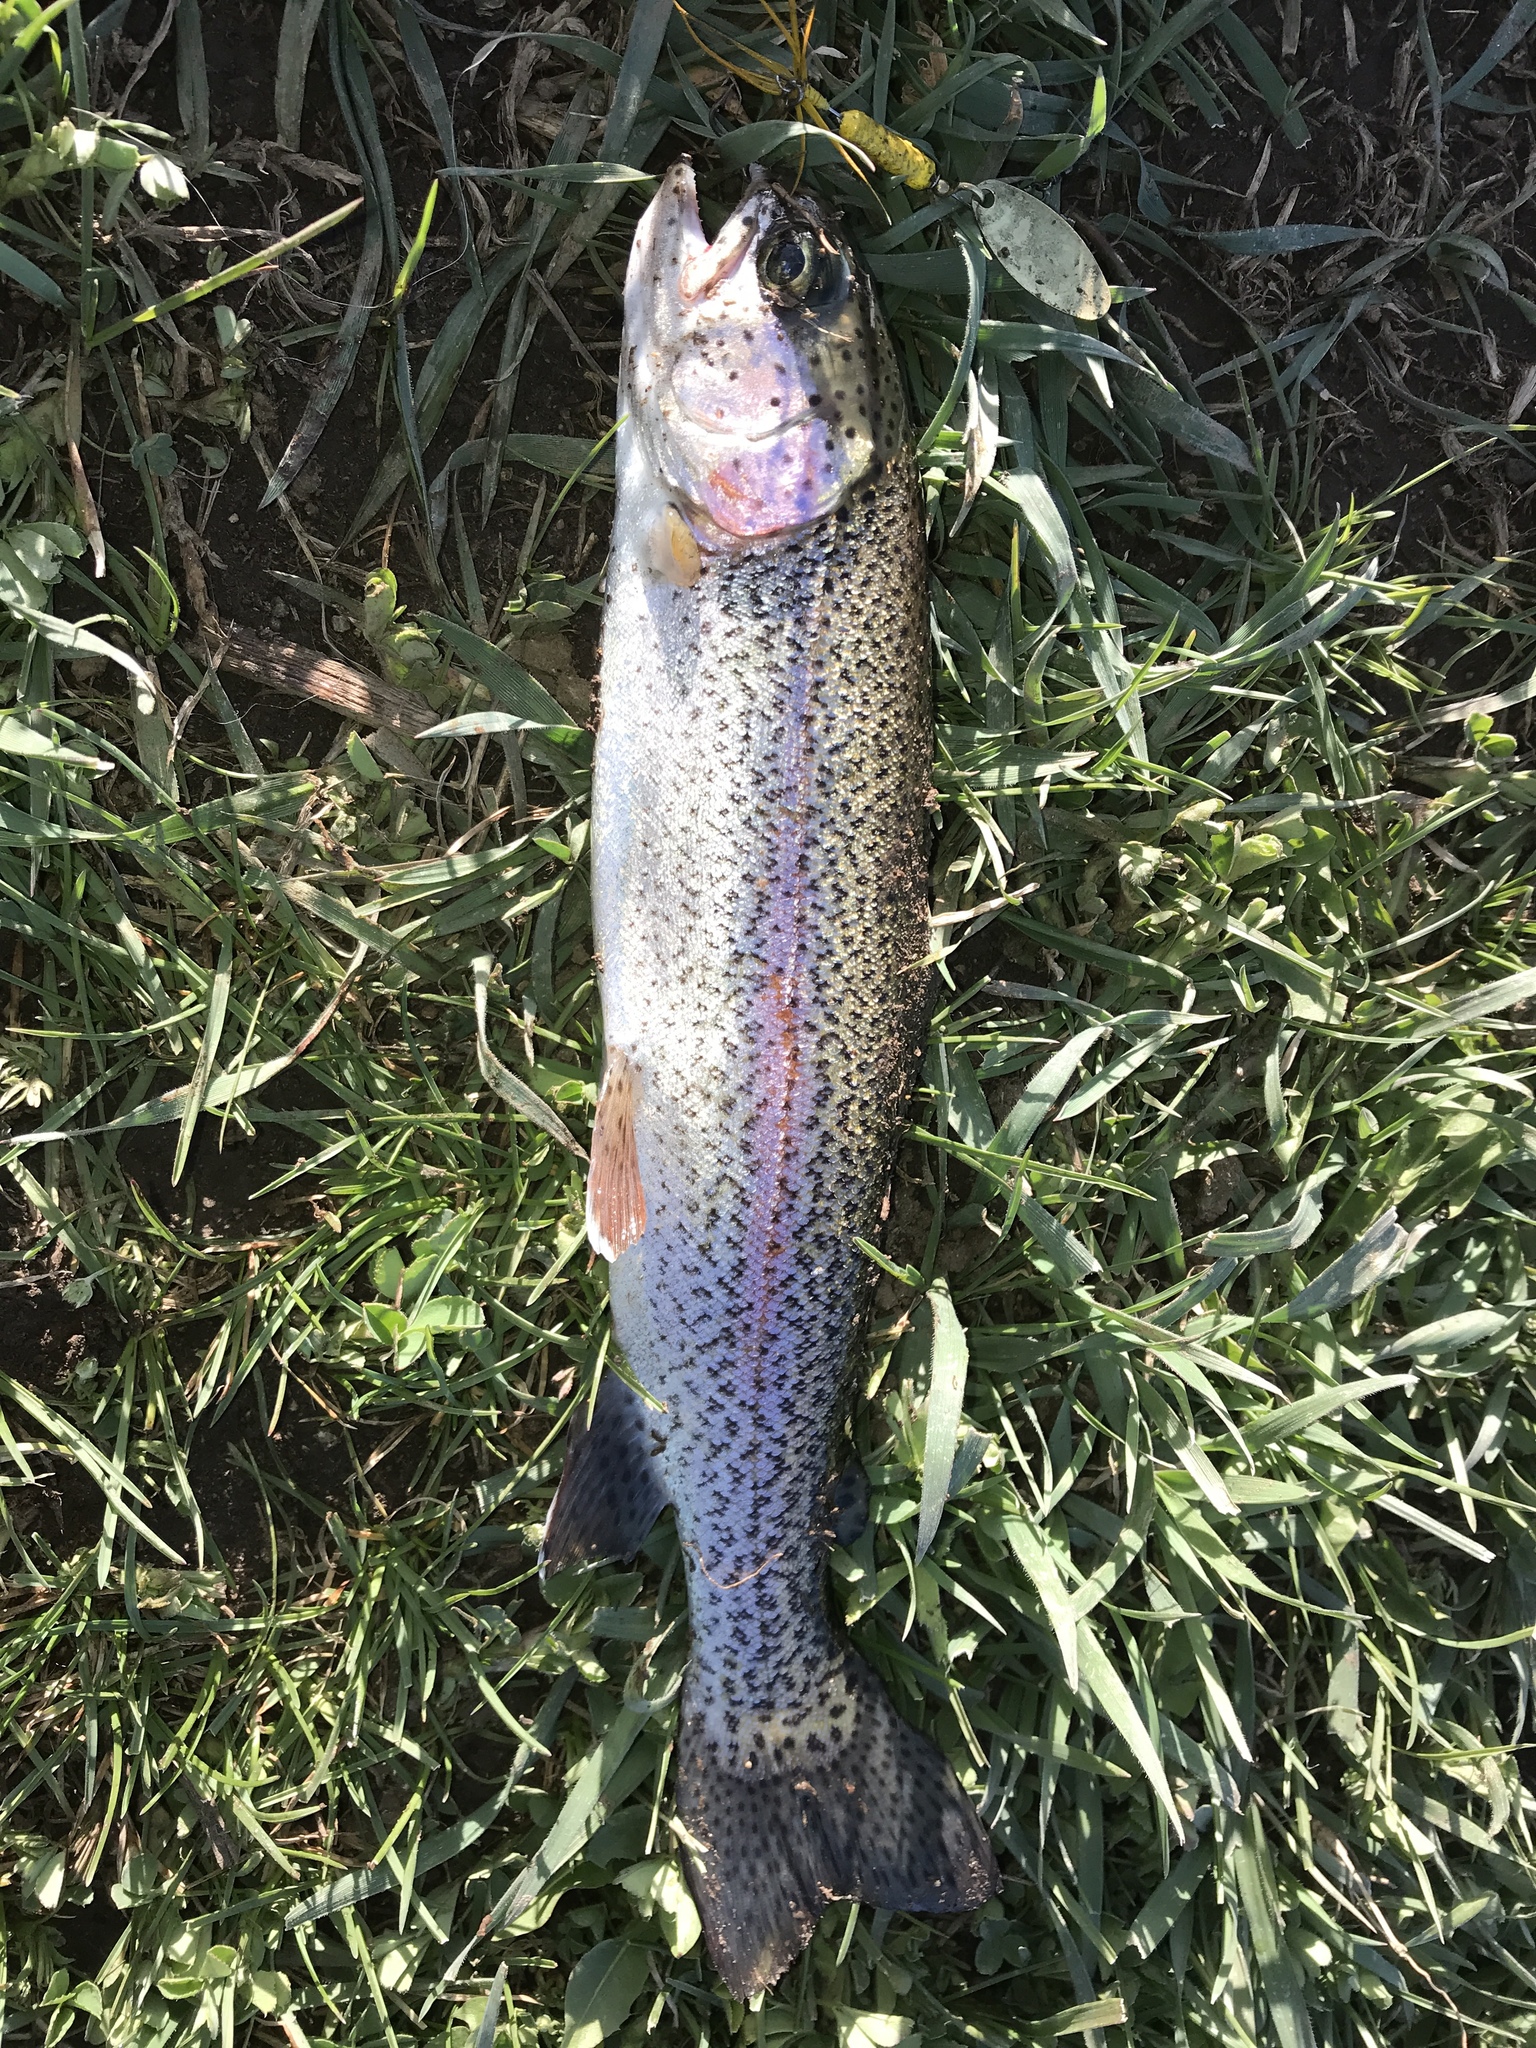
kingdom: Animalia
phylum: Chordata
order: Salmoniformes
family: Salmonidae
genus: Oncorhynchus
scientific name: Oncorhynchus mykiss
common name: Rainbow trout
